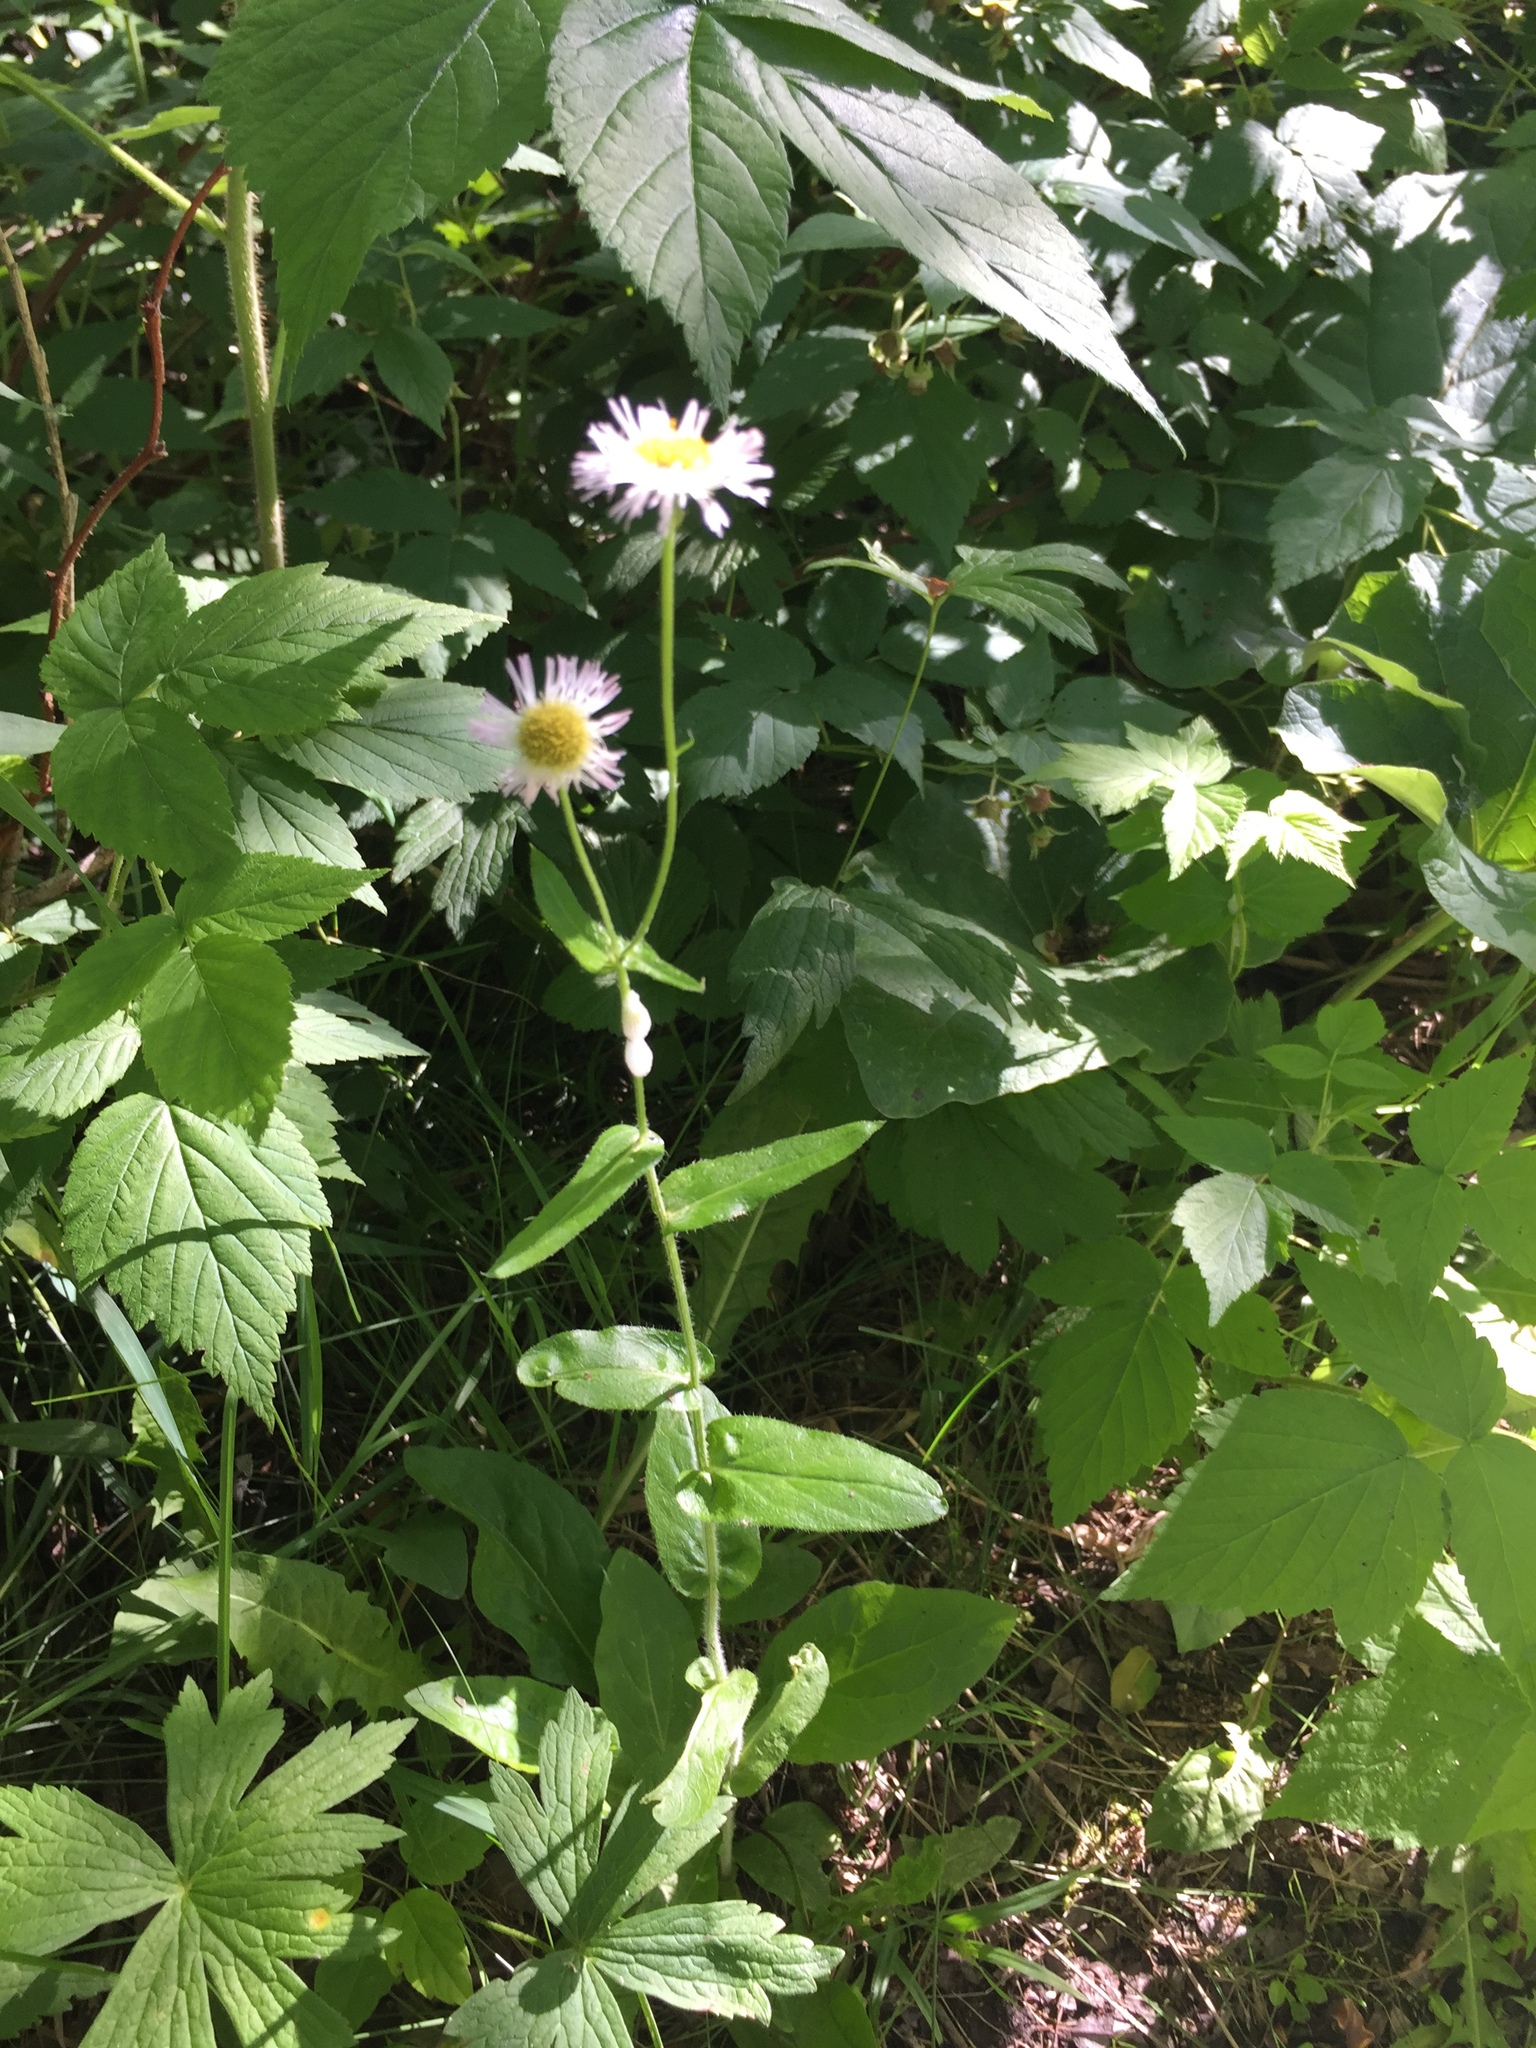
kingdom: Plantae
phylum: Tracheophyta
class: Magnoliopsida
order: Asterales
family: Asteraceae
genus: Erigeron
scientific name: Erigeron philadelphicus
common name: Robin's-plantain
